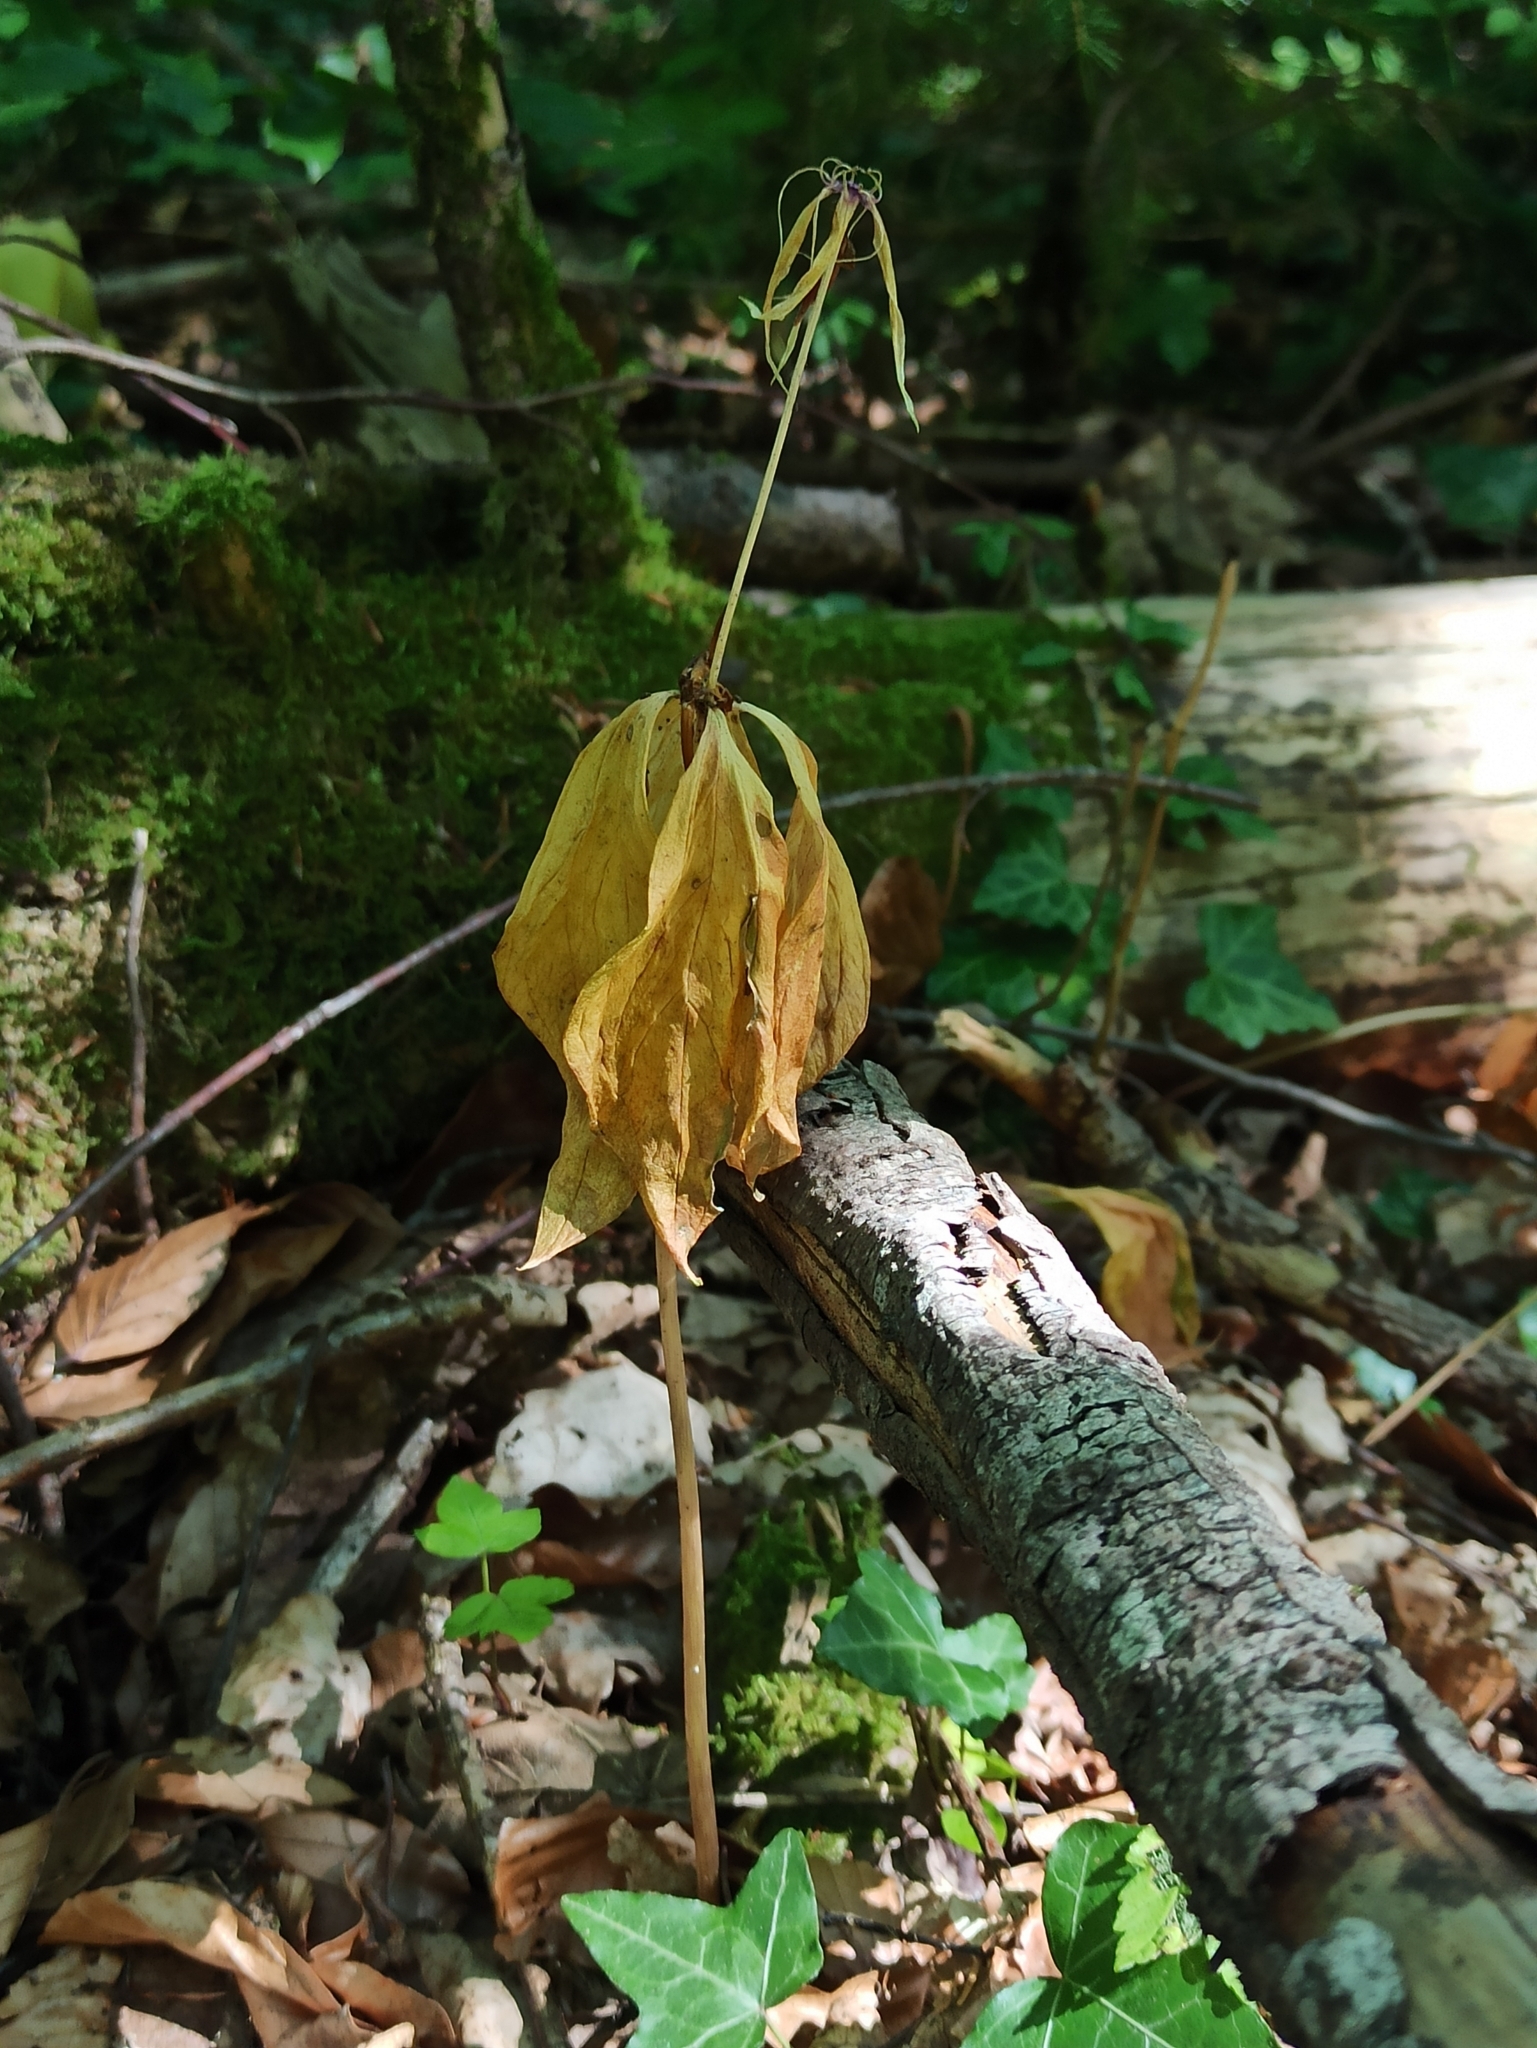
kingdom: Plantae
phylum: Tracheophyta
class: Liliopsida
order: Liliales
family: Melanthiaceae
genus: Paris
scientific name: Paris quadrifolia
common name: Herb-paris
